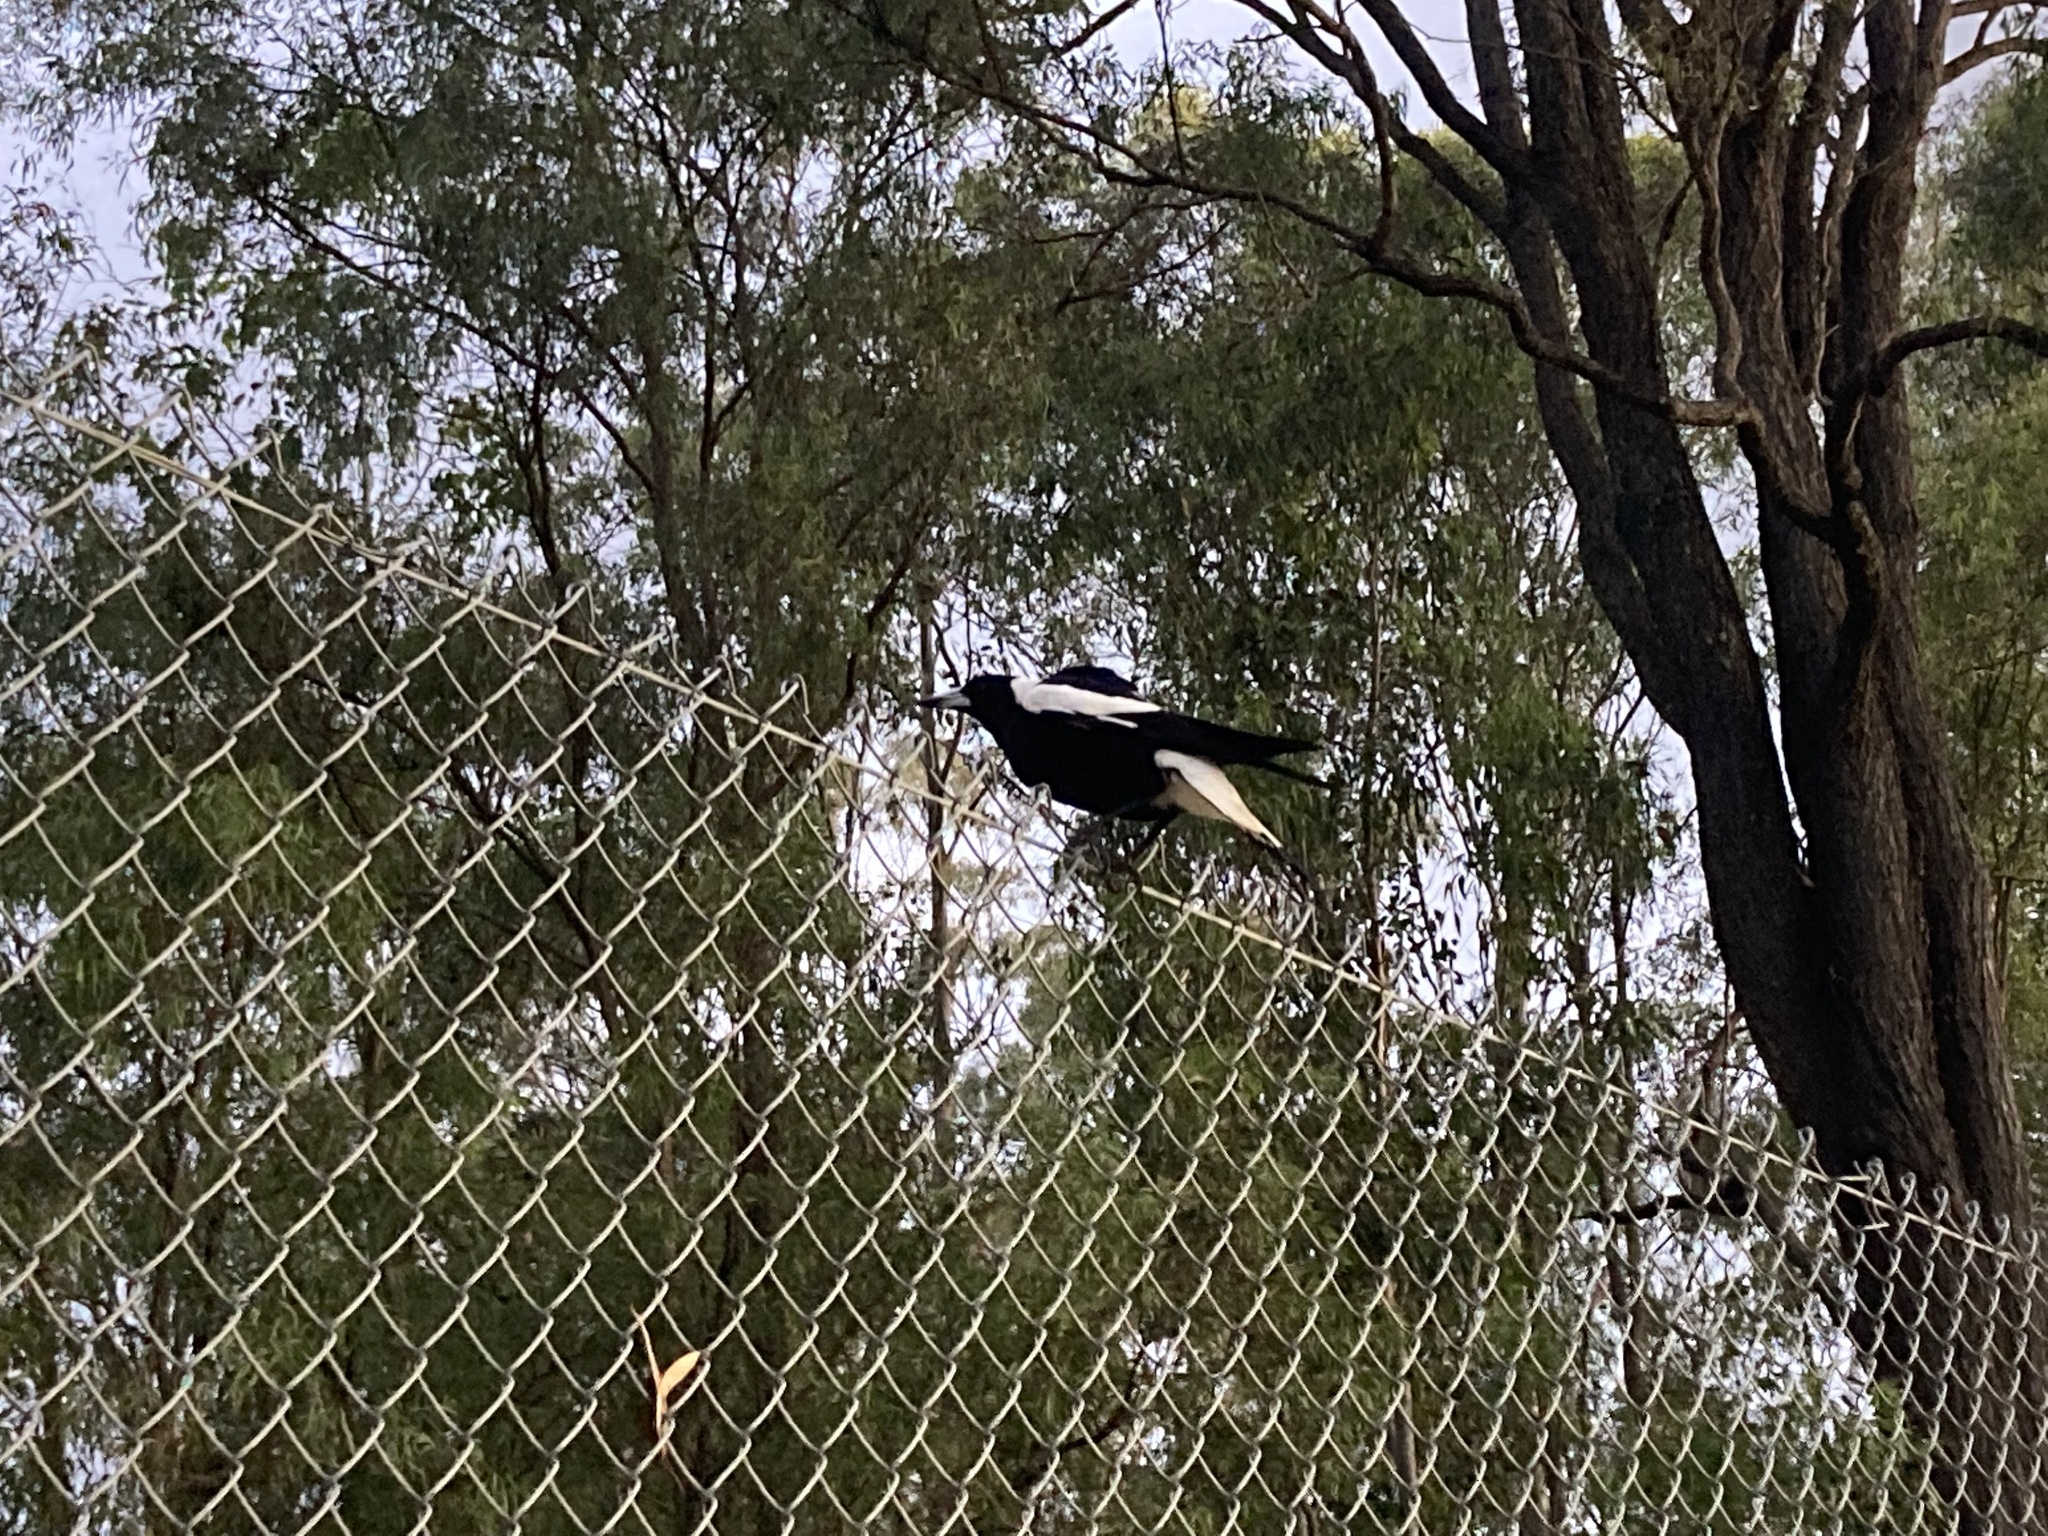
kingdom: Animalia
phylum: Chordata
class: Aves
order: Passeriformes
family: Cracticidae
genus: Gymnorhina
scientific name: Gymnorhina tibicen
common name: Australian magpie
